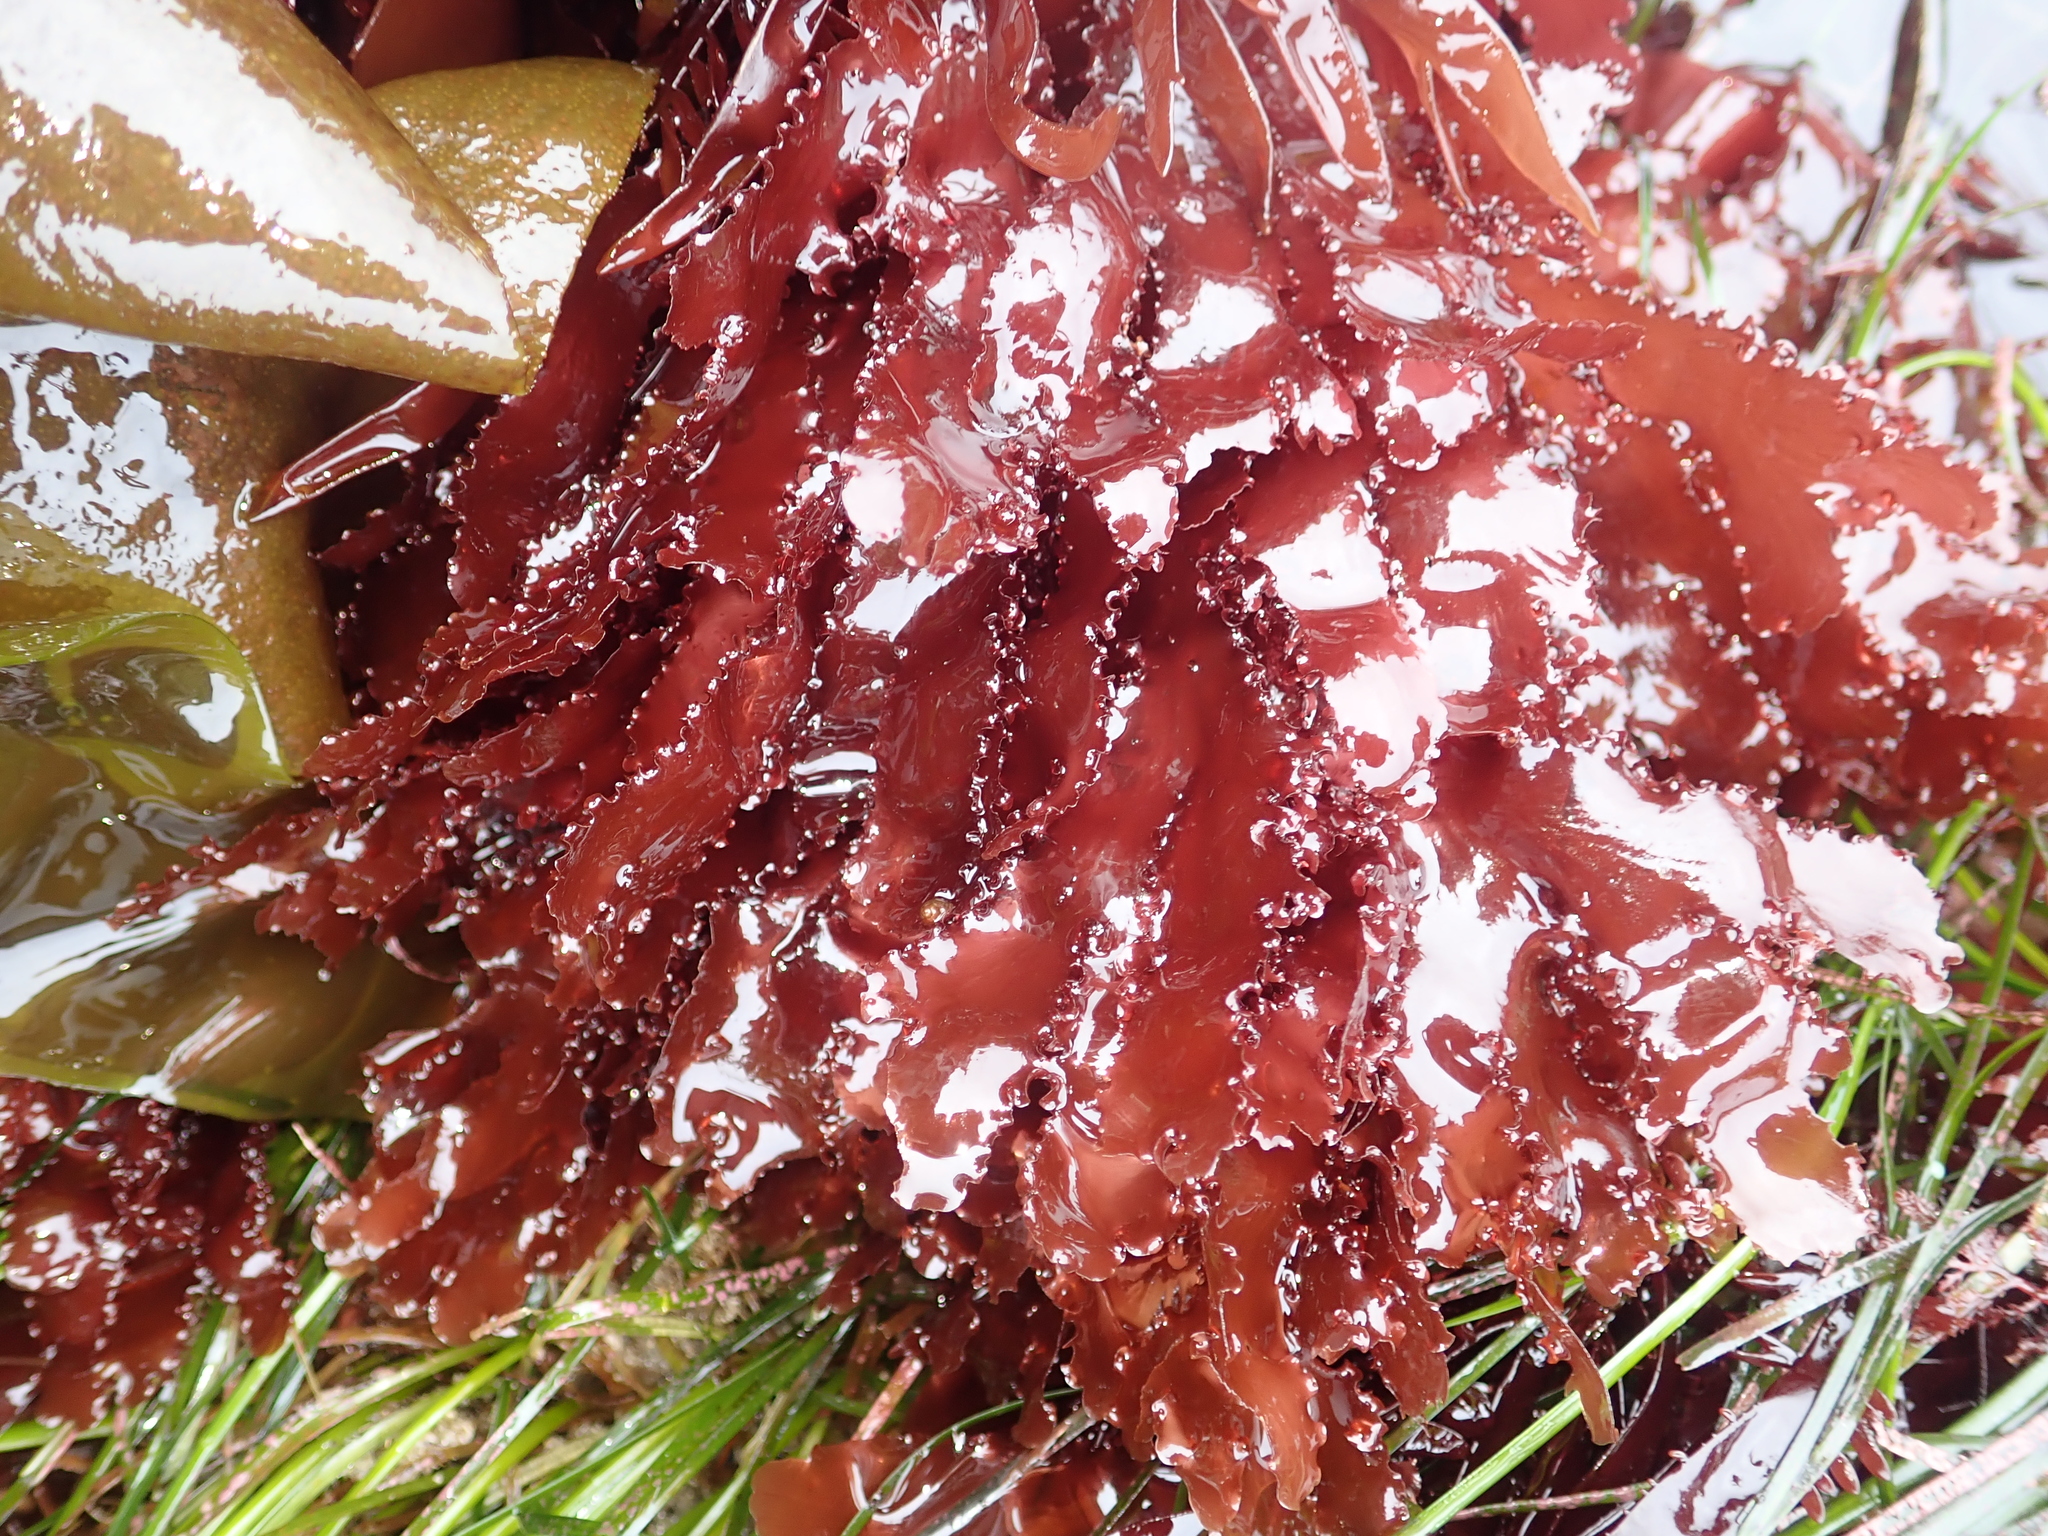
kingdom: Plantae
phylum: Rhodophyta
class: Florideophyceae
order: Ceramiales
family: Delesseriaceae
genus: Cryptopleura
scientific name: Cryptopleura ruprechtiana
